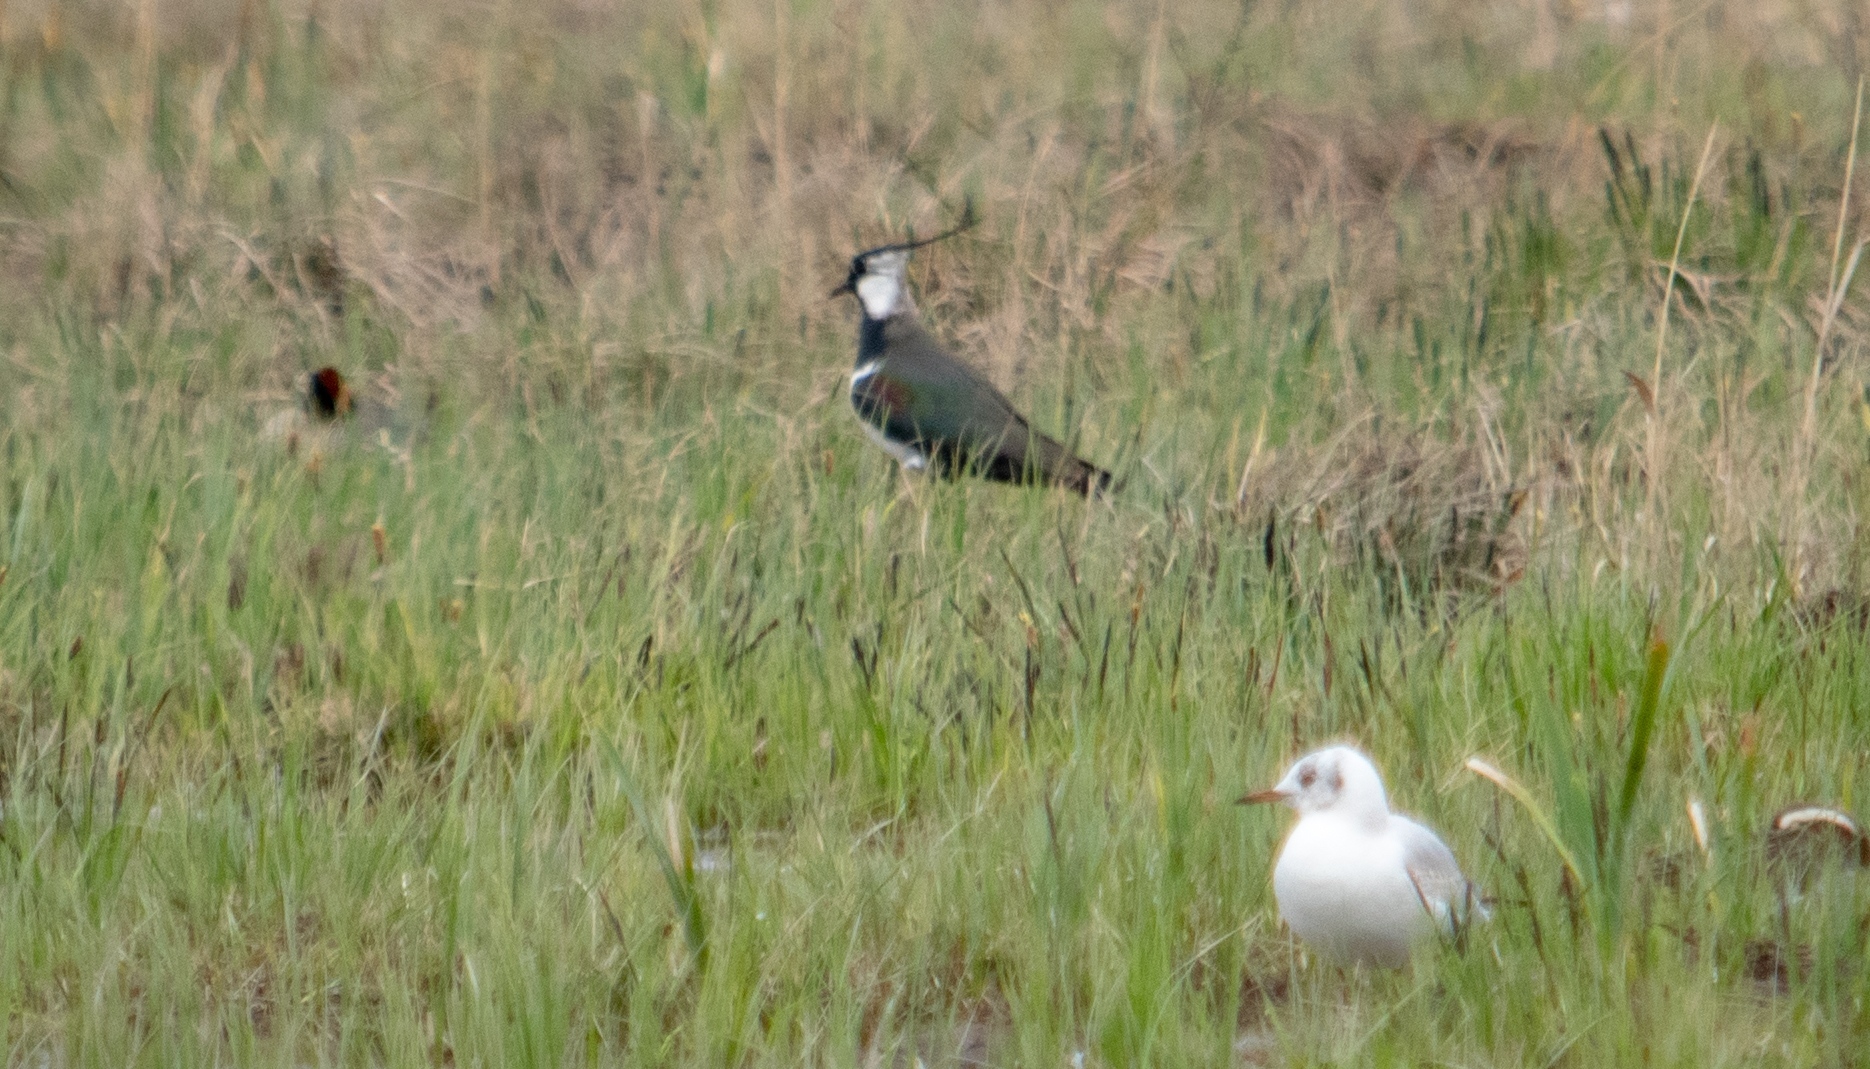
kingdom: Animalia
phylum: Chordata
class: Aves
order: Charadriiformes
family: Laridae
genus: Chroicocephalus
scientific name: Chroicocephalus ridibundus
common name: Black-headed gull
